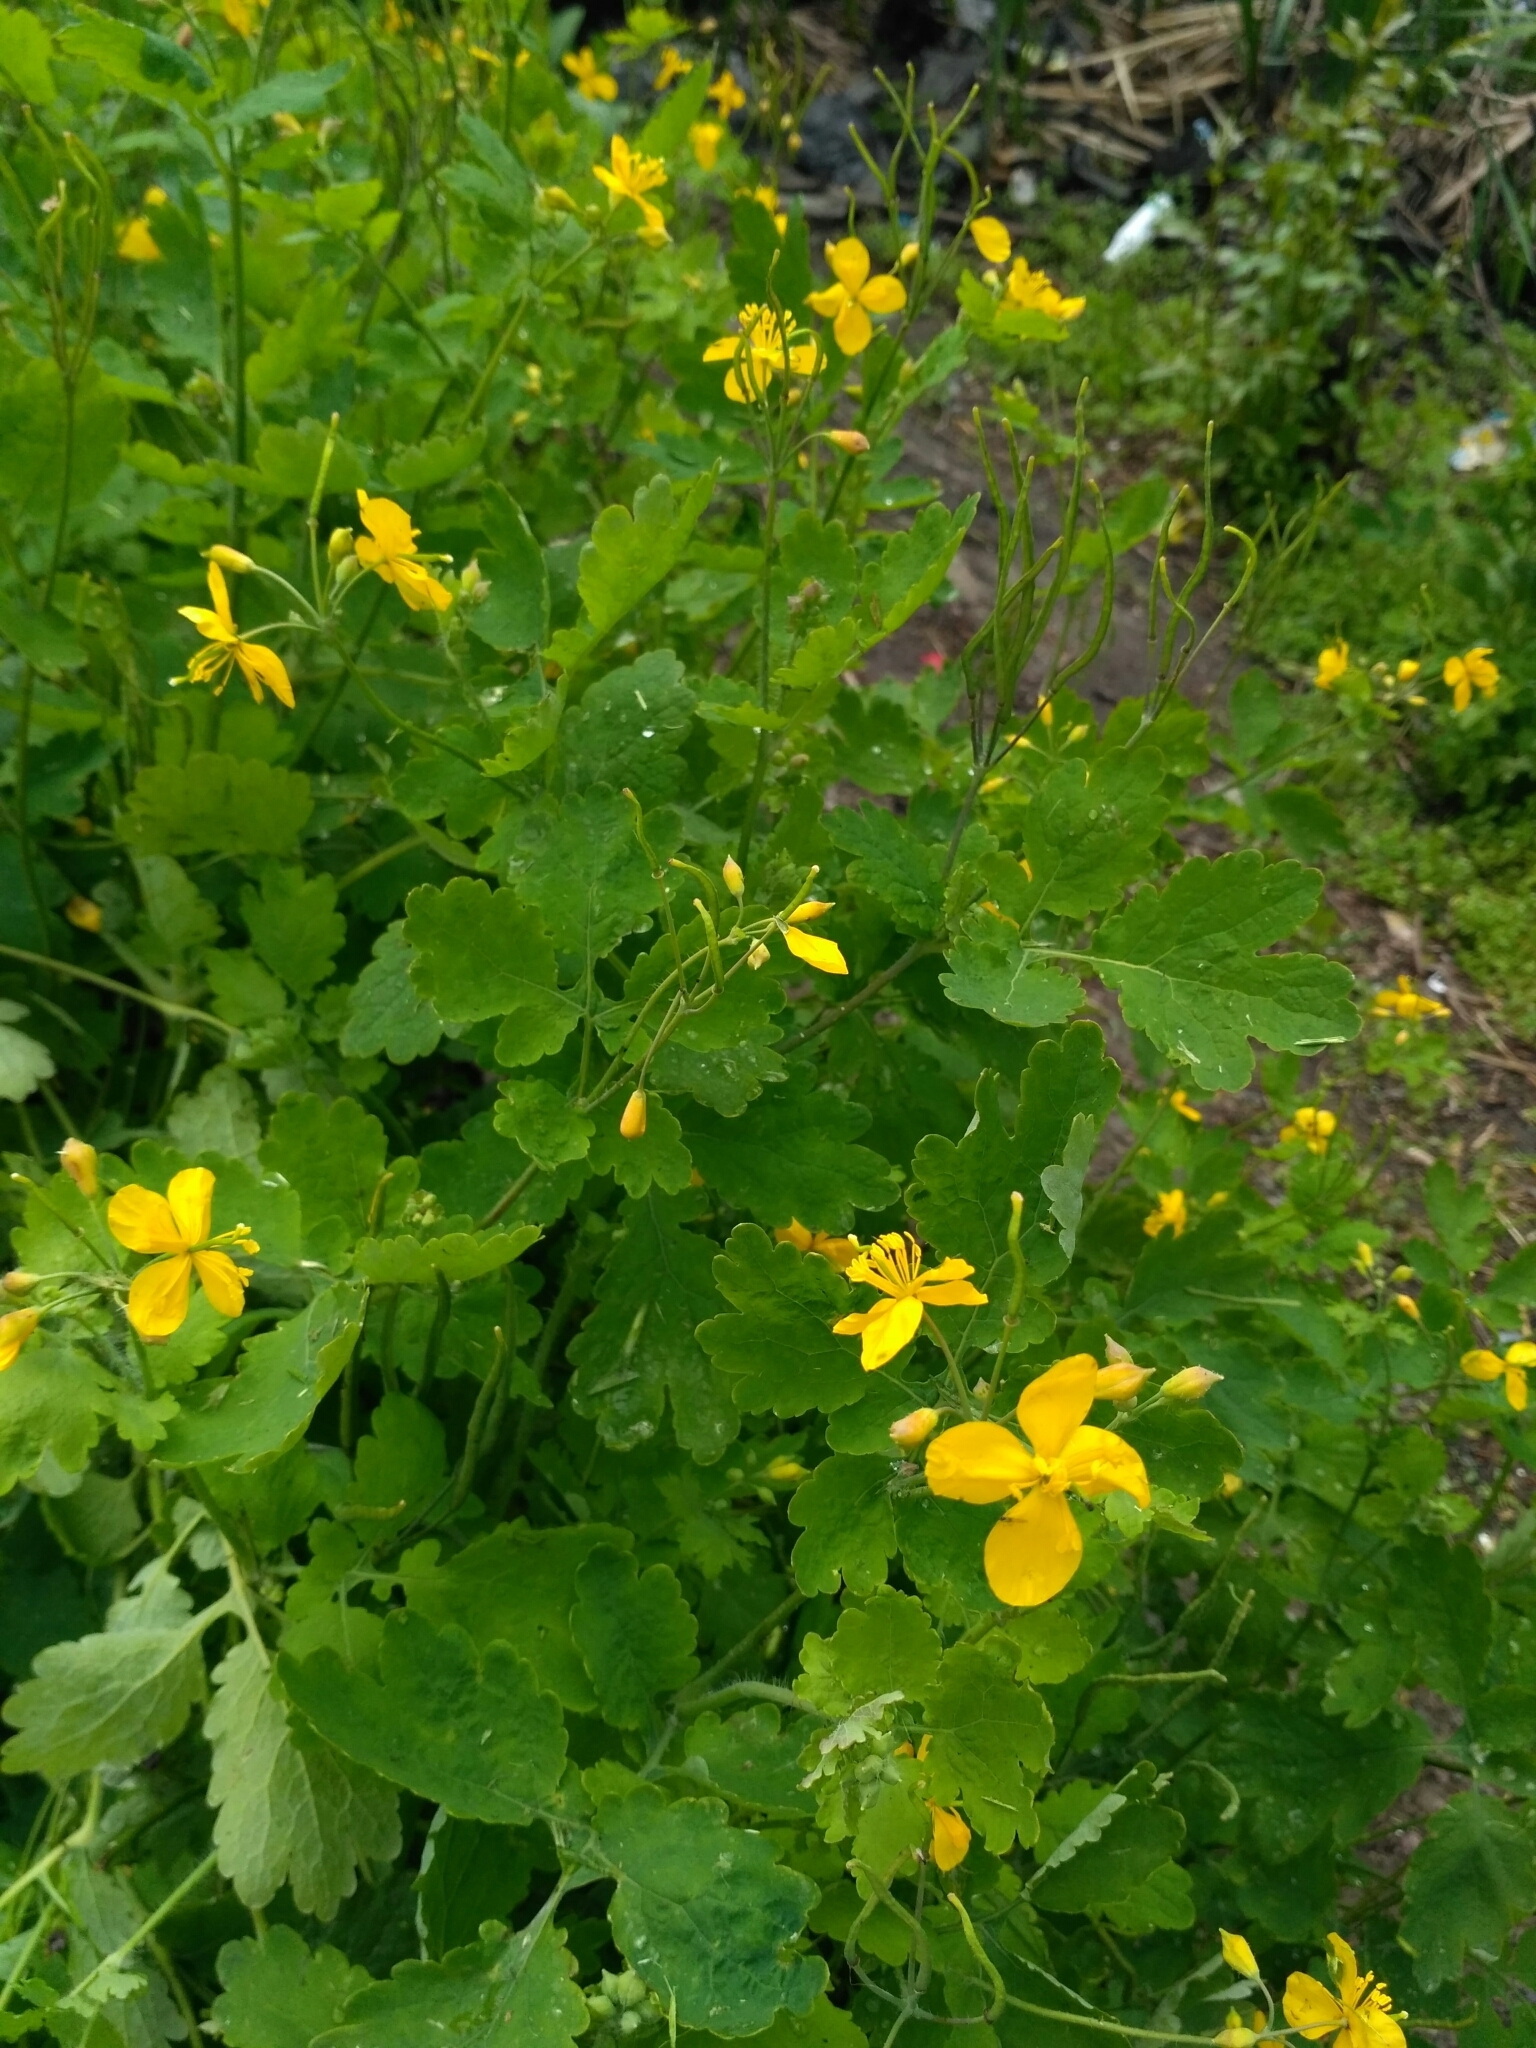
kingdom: Plantae
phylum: Tracheophyta
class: Magnoliopsida
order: Ranunculales
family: Papaveraceae
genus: Chelidonium
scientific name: Chelidonium majus
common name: Greater celandine
